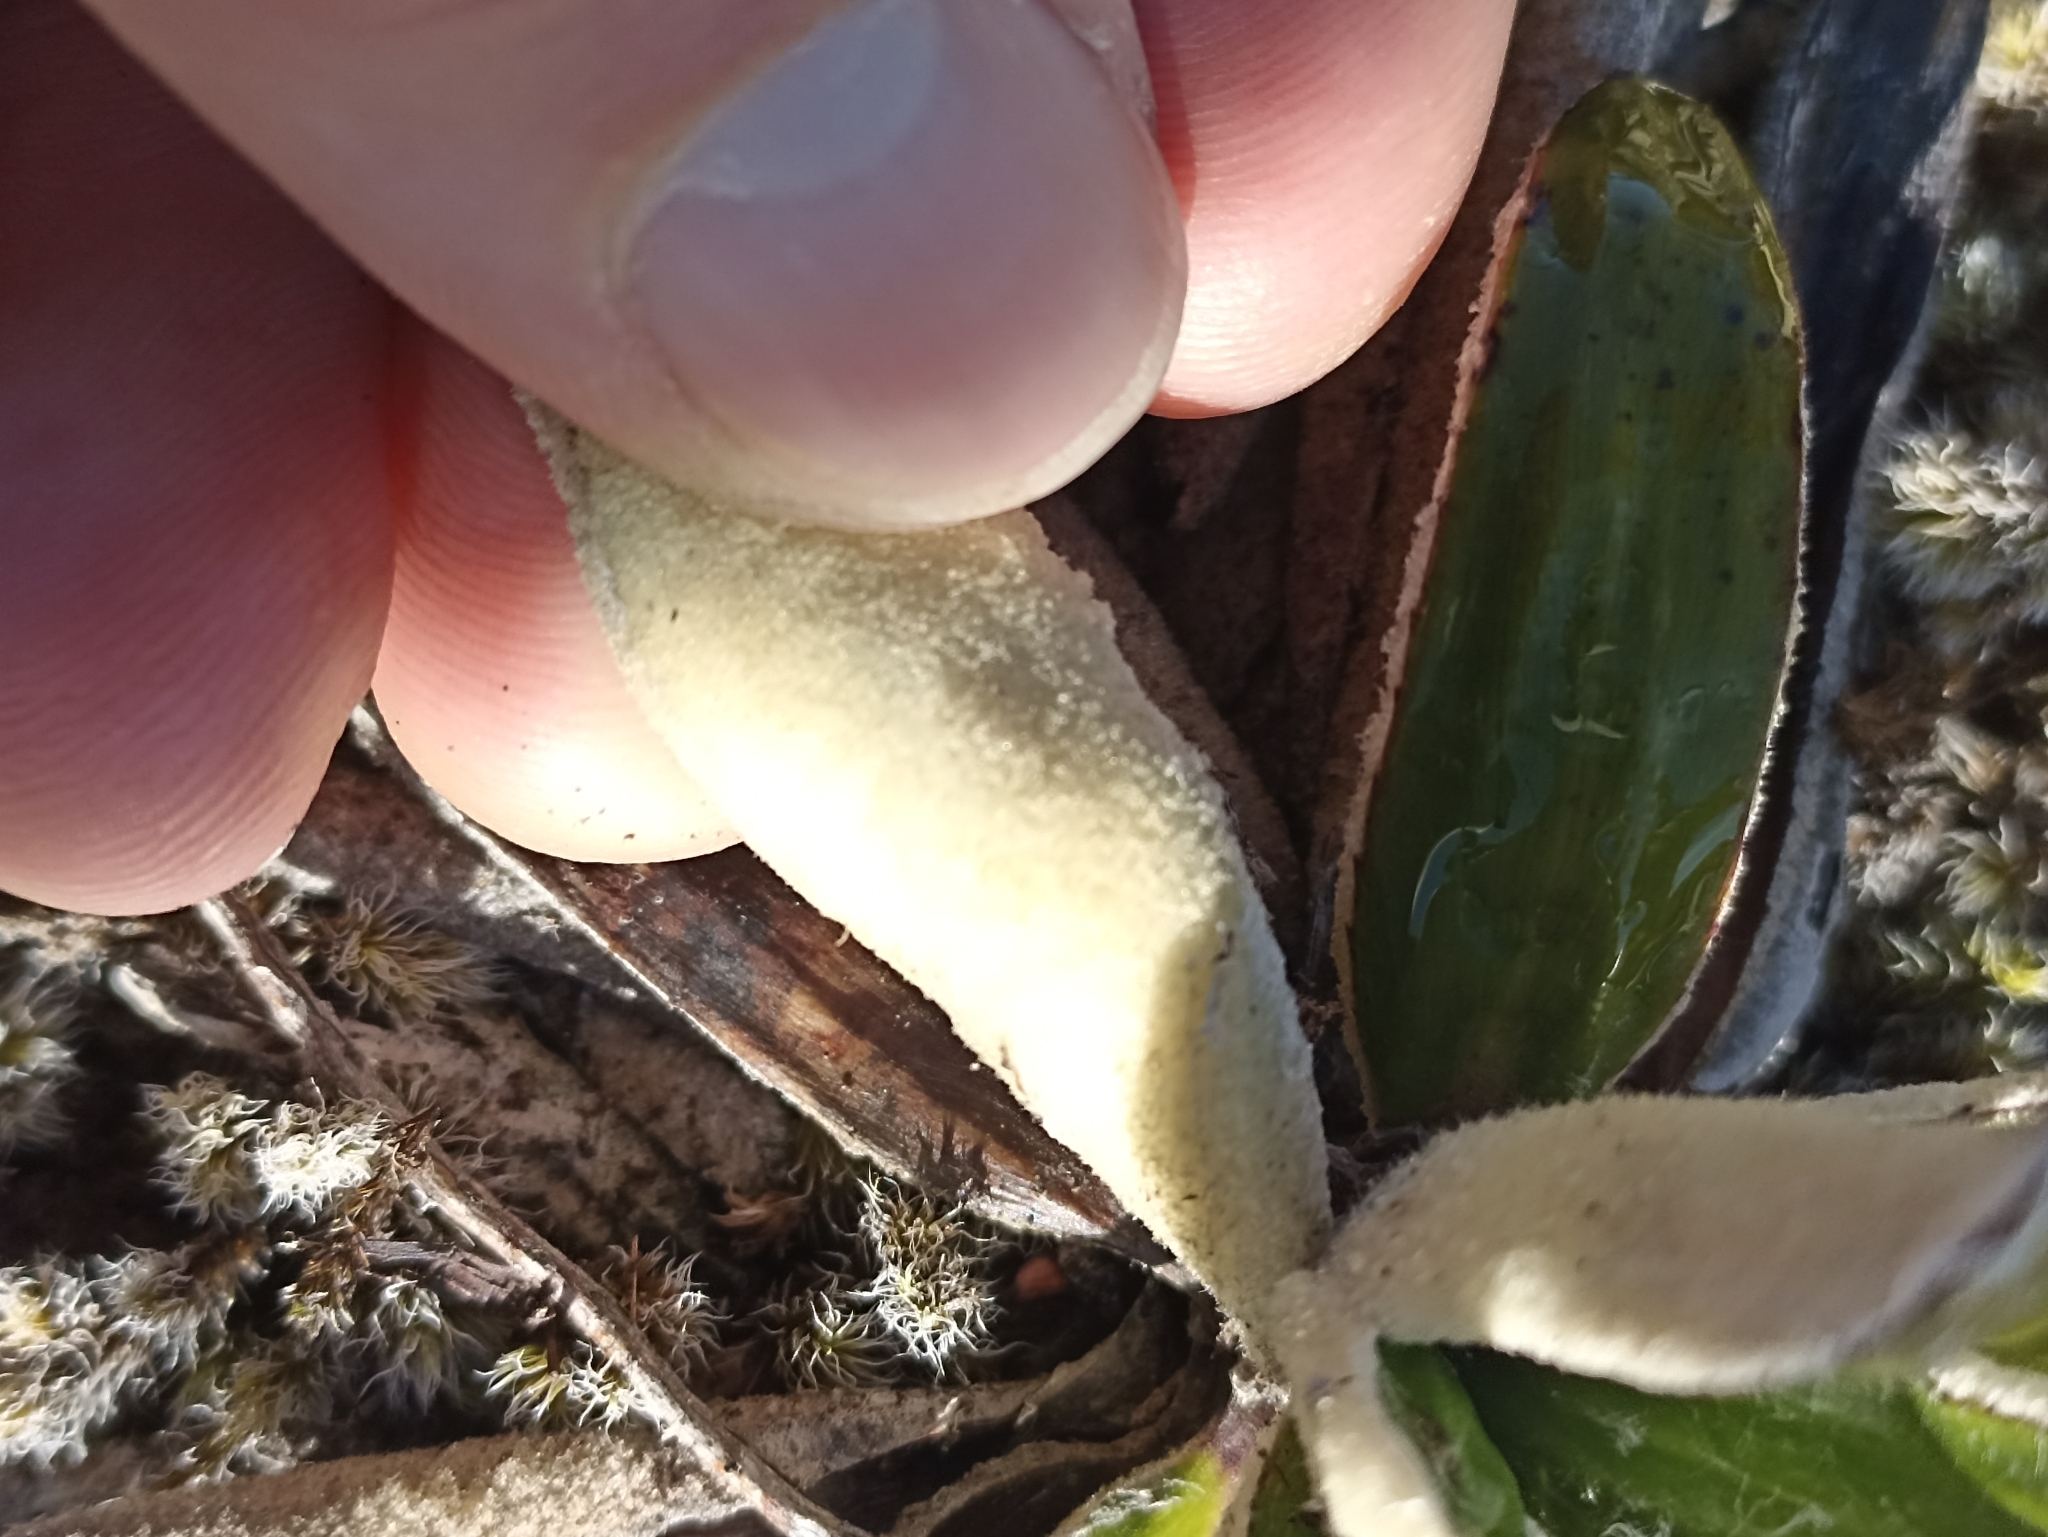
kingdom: Plantae
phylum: Tracheophyta
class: Magnoliopsida
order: Asterales
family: Asteraceae
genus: Celmisia
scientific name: Celmisia spectabilis
